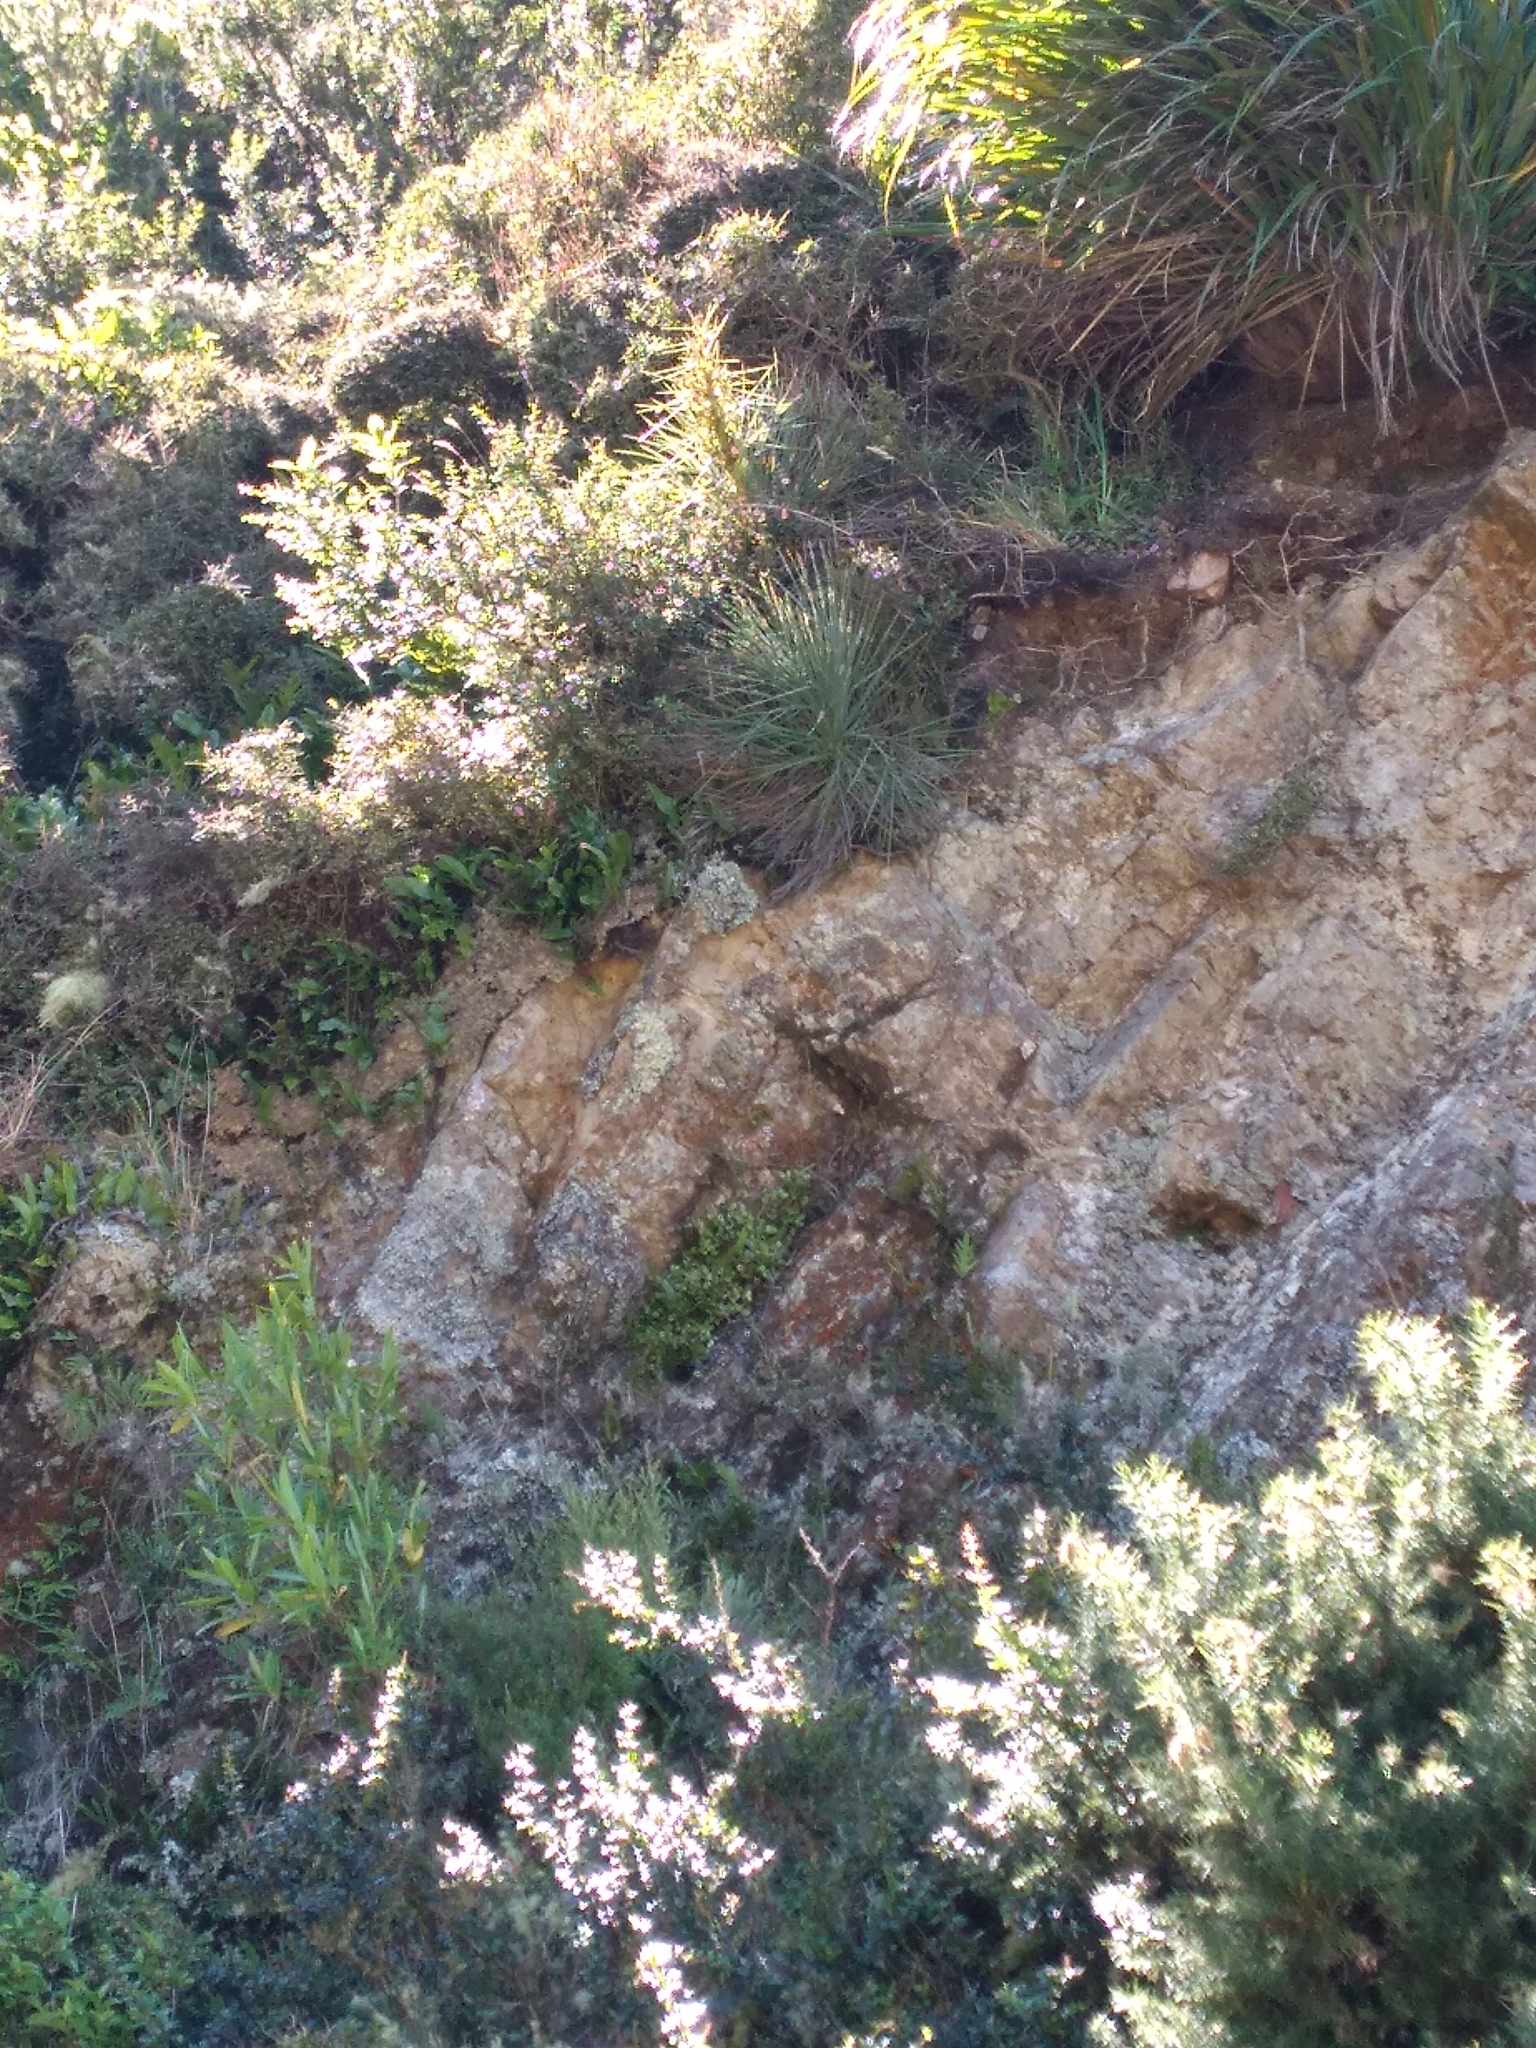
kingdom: Plantae
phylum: Tracheophyta
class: Magnoliopsida
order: Apiales
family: Apiaceae
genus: Aciphylla
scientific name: Aciphylla squarrosa
